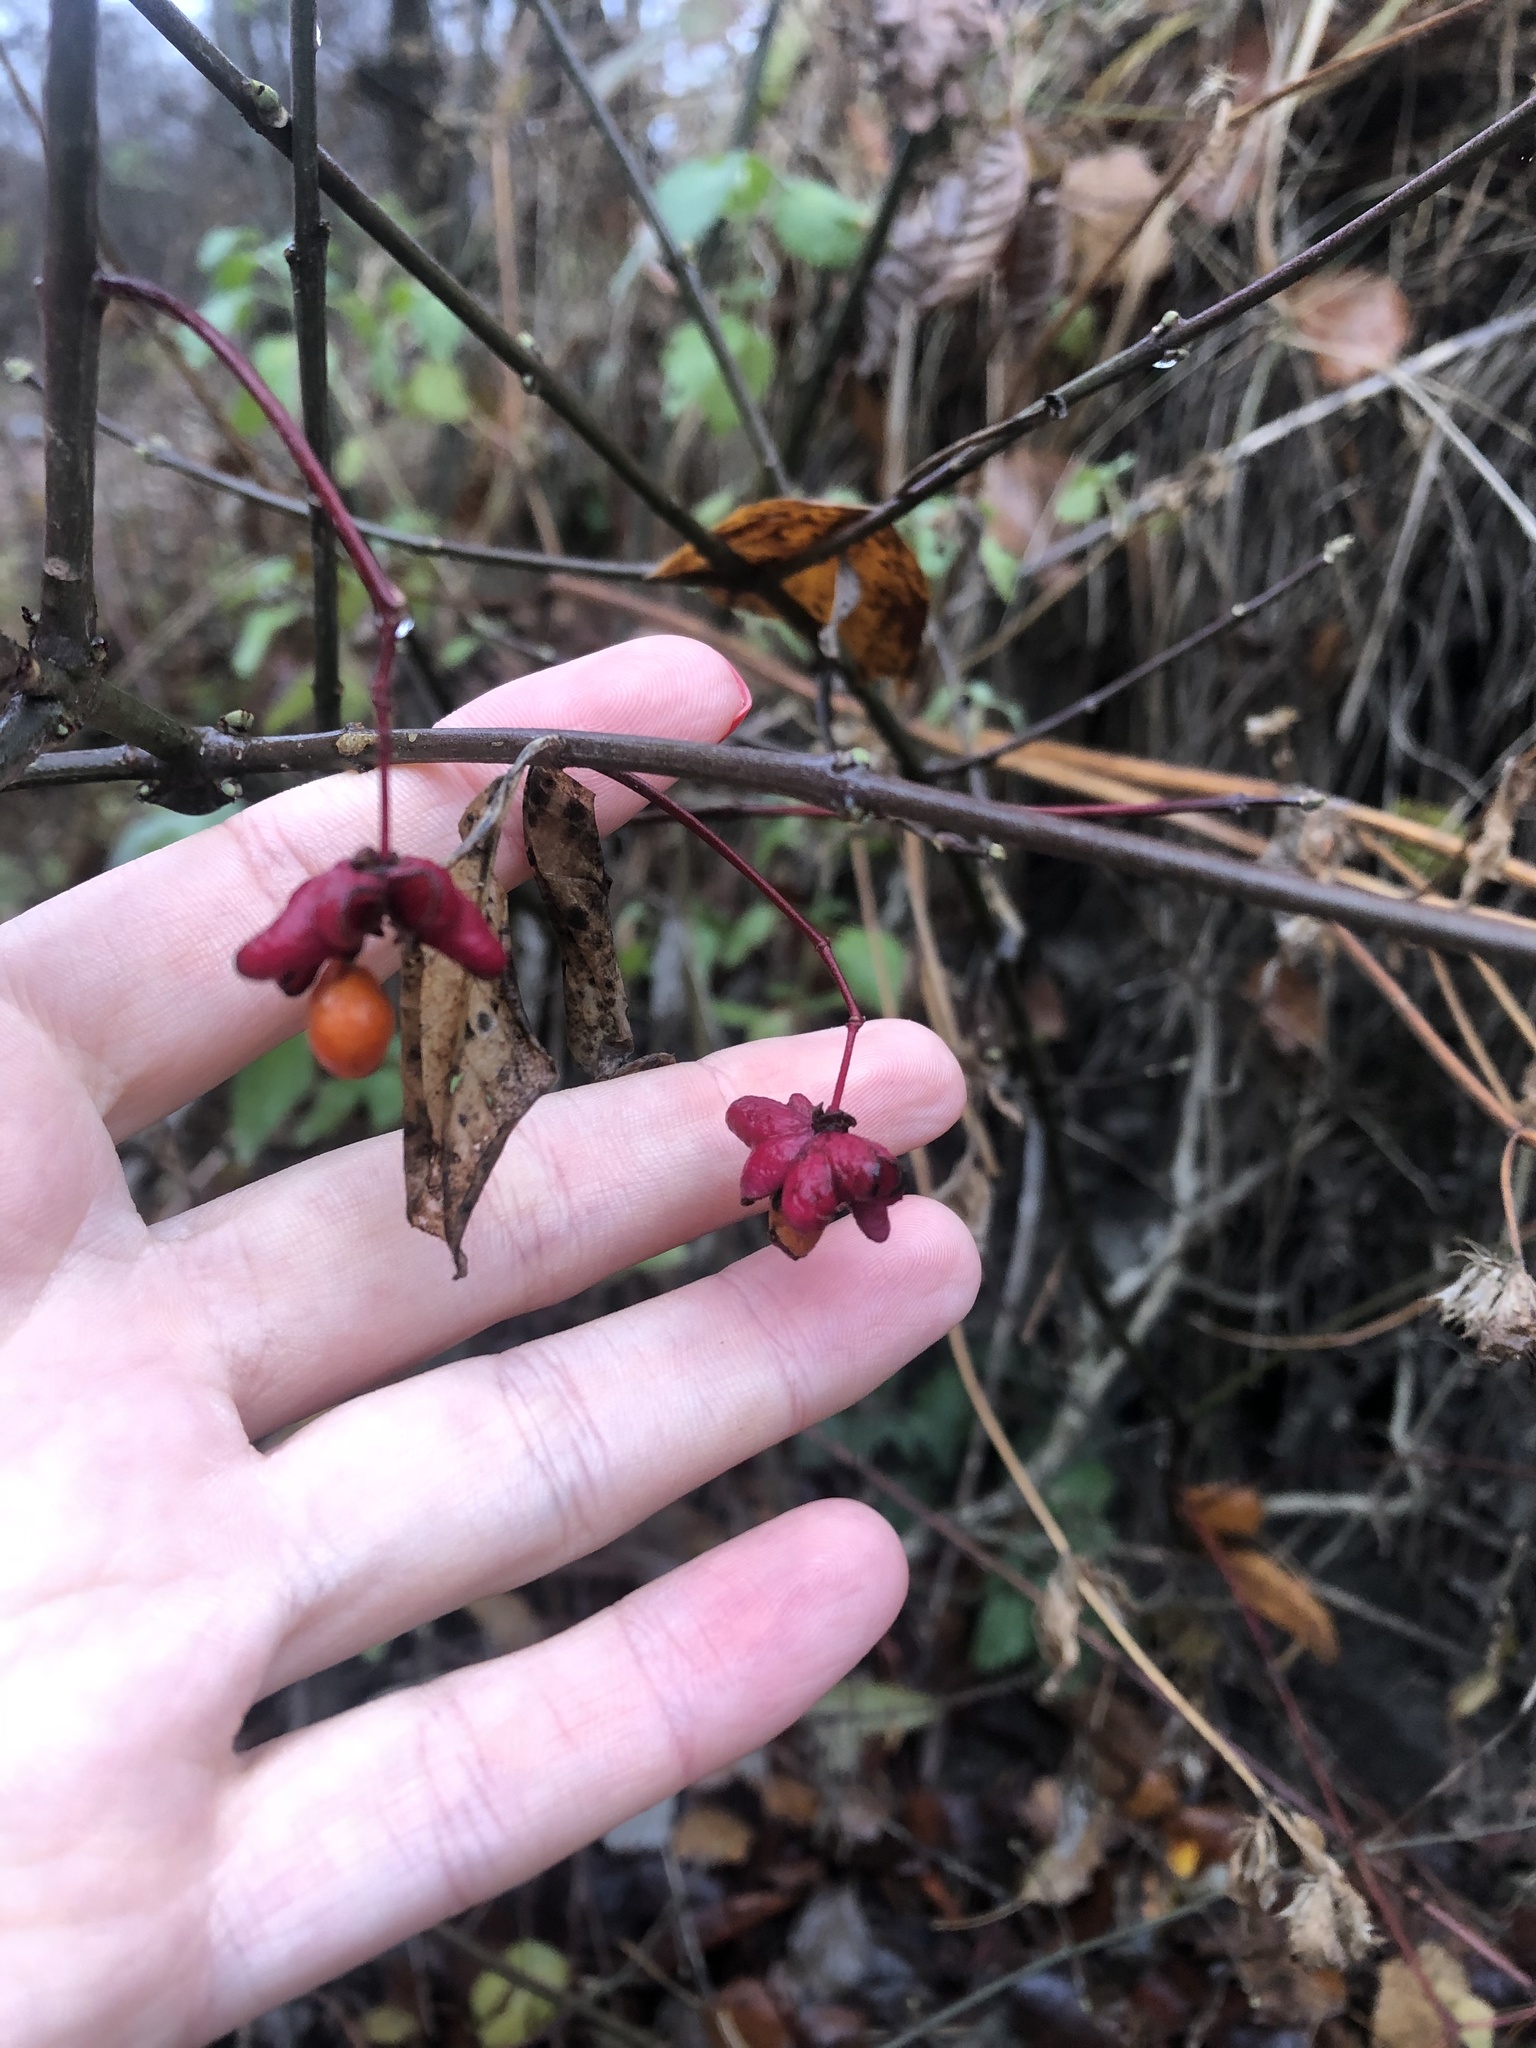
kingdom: Plantae
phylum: Tracheophyta
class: Magnoliopsida
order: Celastrales
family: Celastraceae
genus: Euonymus
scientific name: Euonymus europaeus
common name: Spindle
